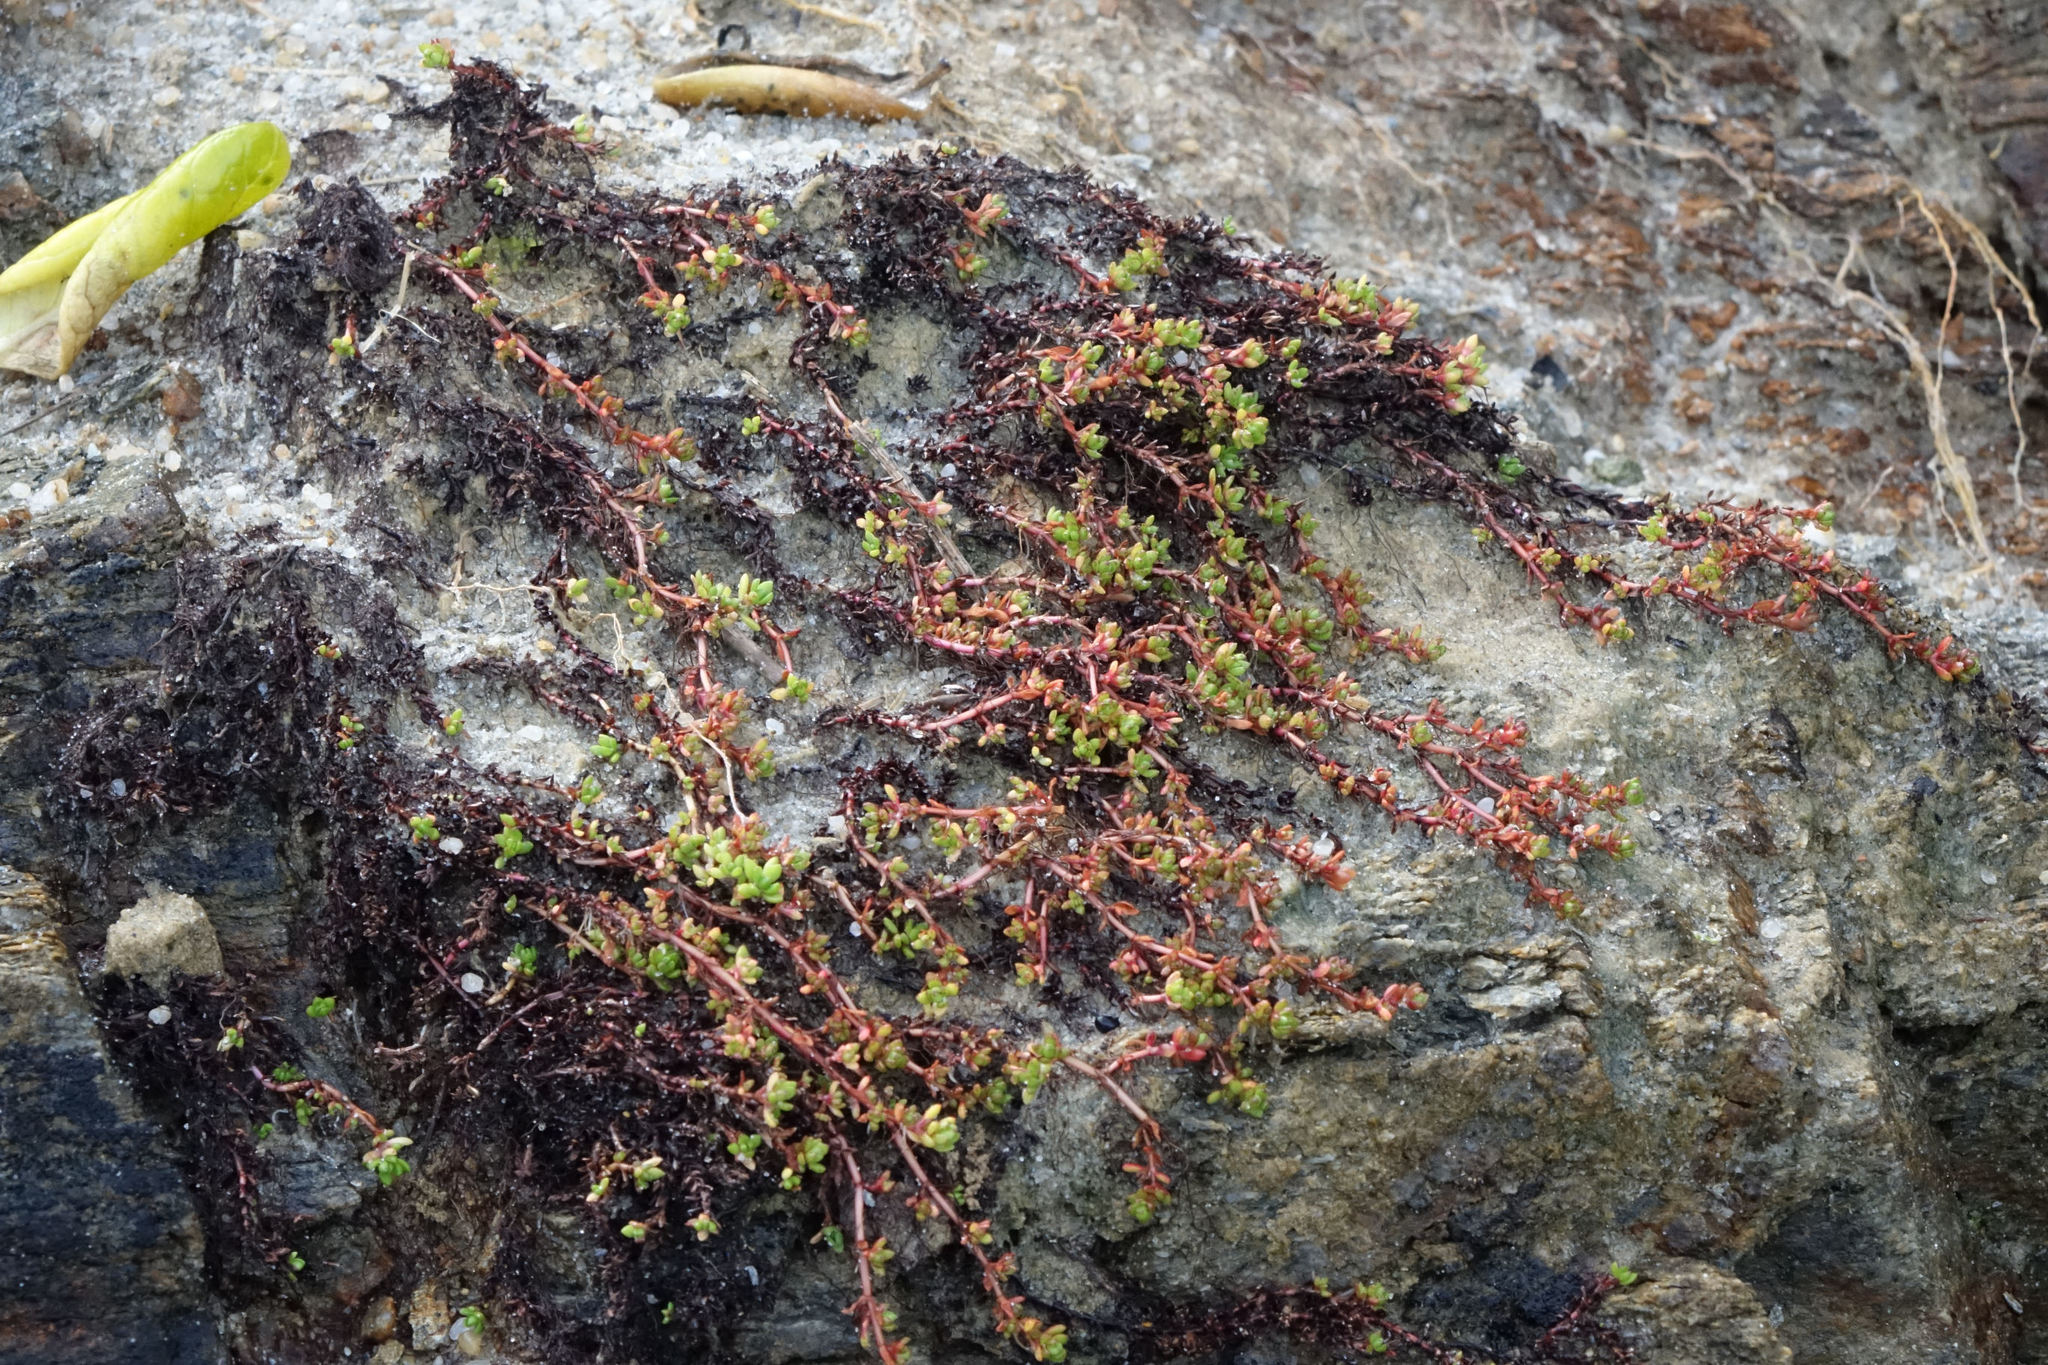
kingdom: Plantae
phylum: Tracheophyta
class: Magnoliopsida
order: Saxifragales
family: Crassulaceae
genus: Crassula
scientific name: Crassula moschata
